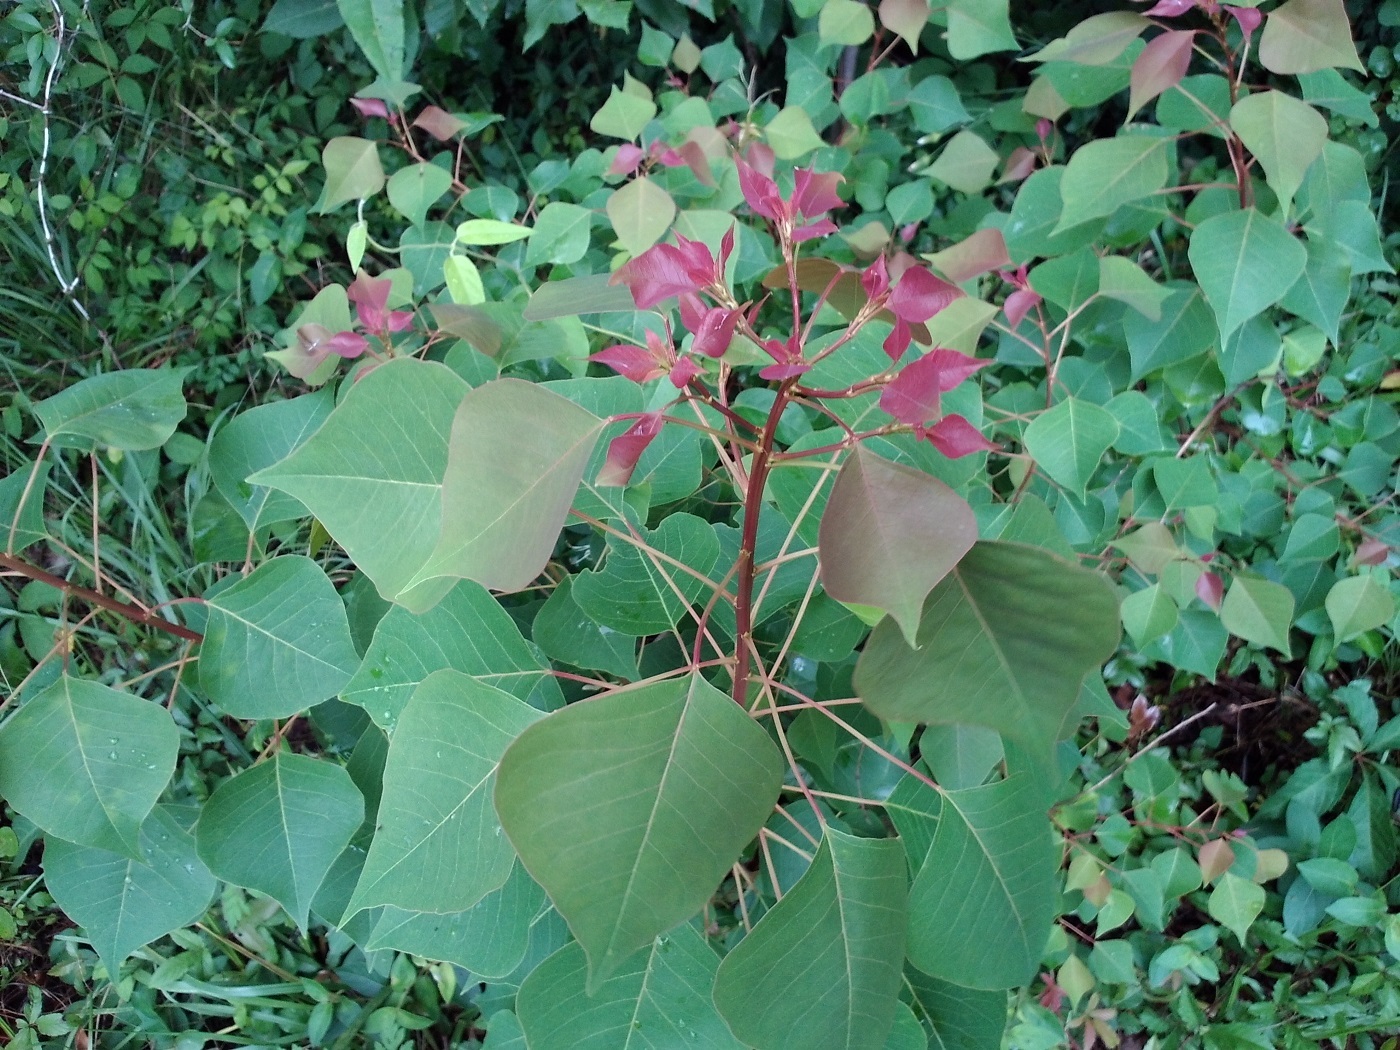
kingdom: Plantae
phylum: Tracheophyta
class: Magnoliopsida
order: Malpighiales
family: Euphorbiaceae
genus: Triadica
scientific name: Triadica sebifera
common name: Chinese tallow
